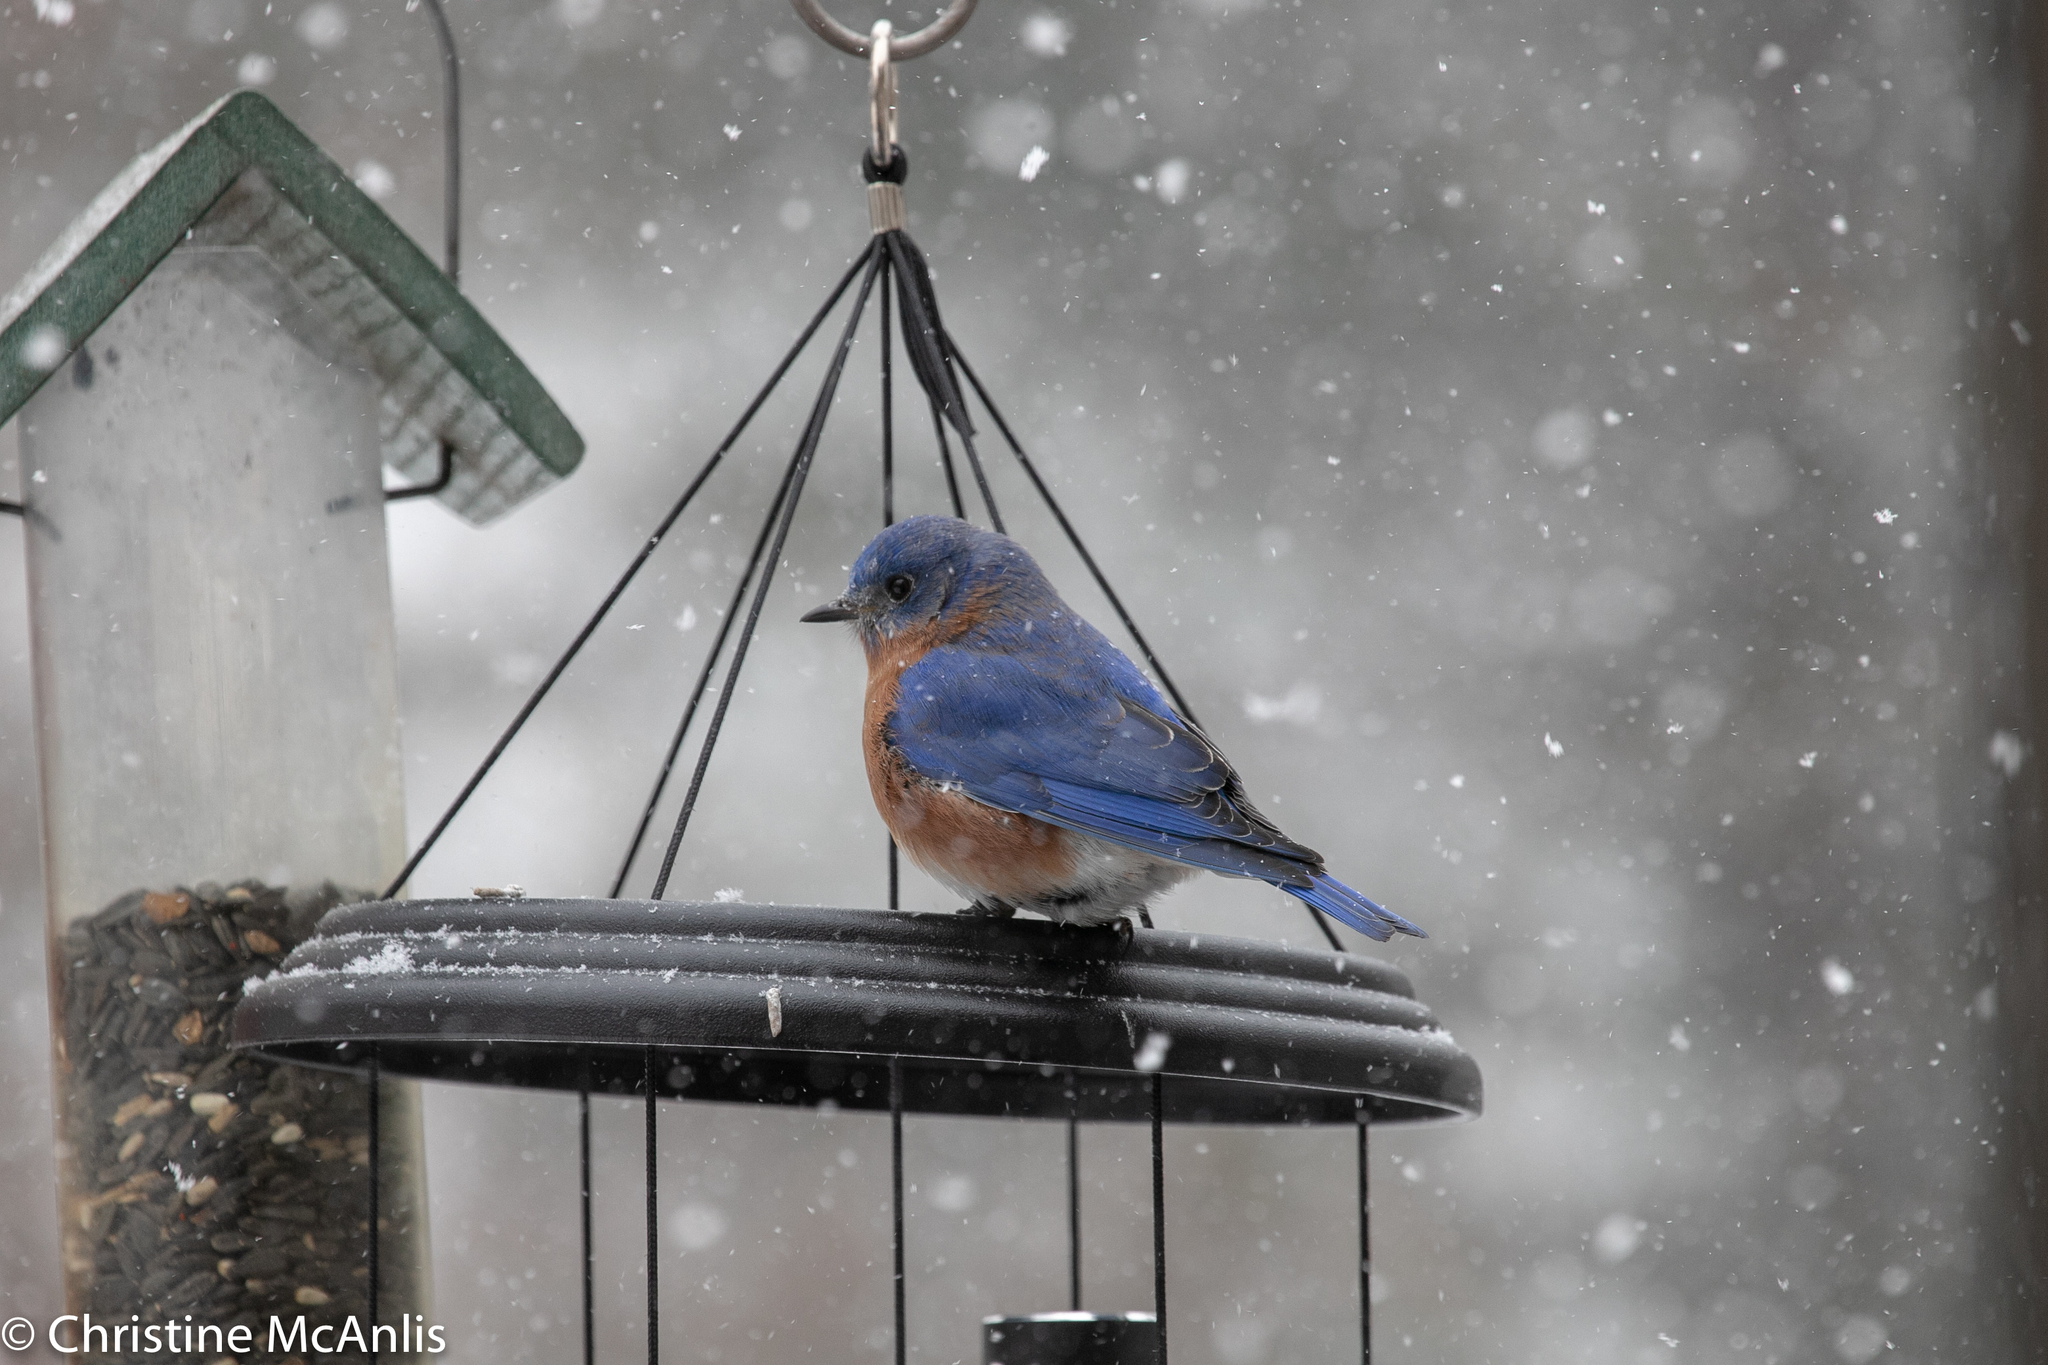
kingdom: Animalia
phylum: Chordata
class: Aves
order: Passeriformes
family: Turdidae
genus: Sialia
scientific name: Sialia sialis
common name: Eastern bluebird
